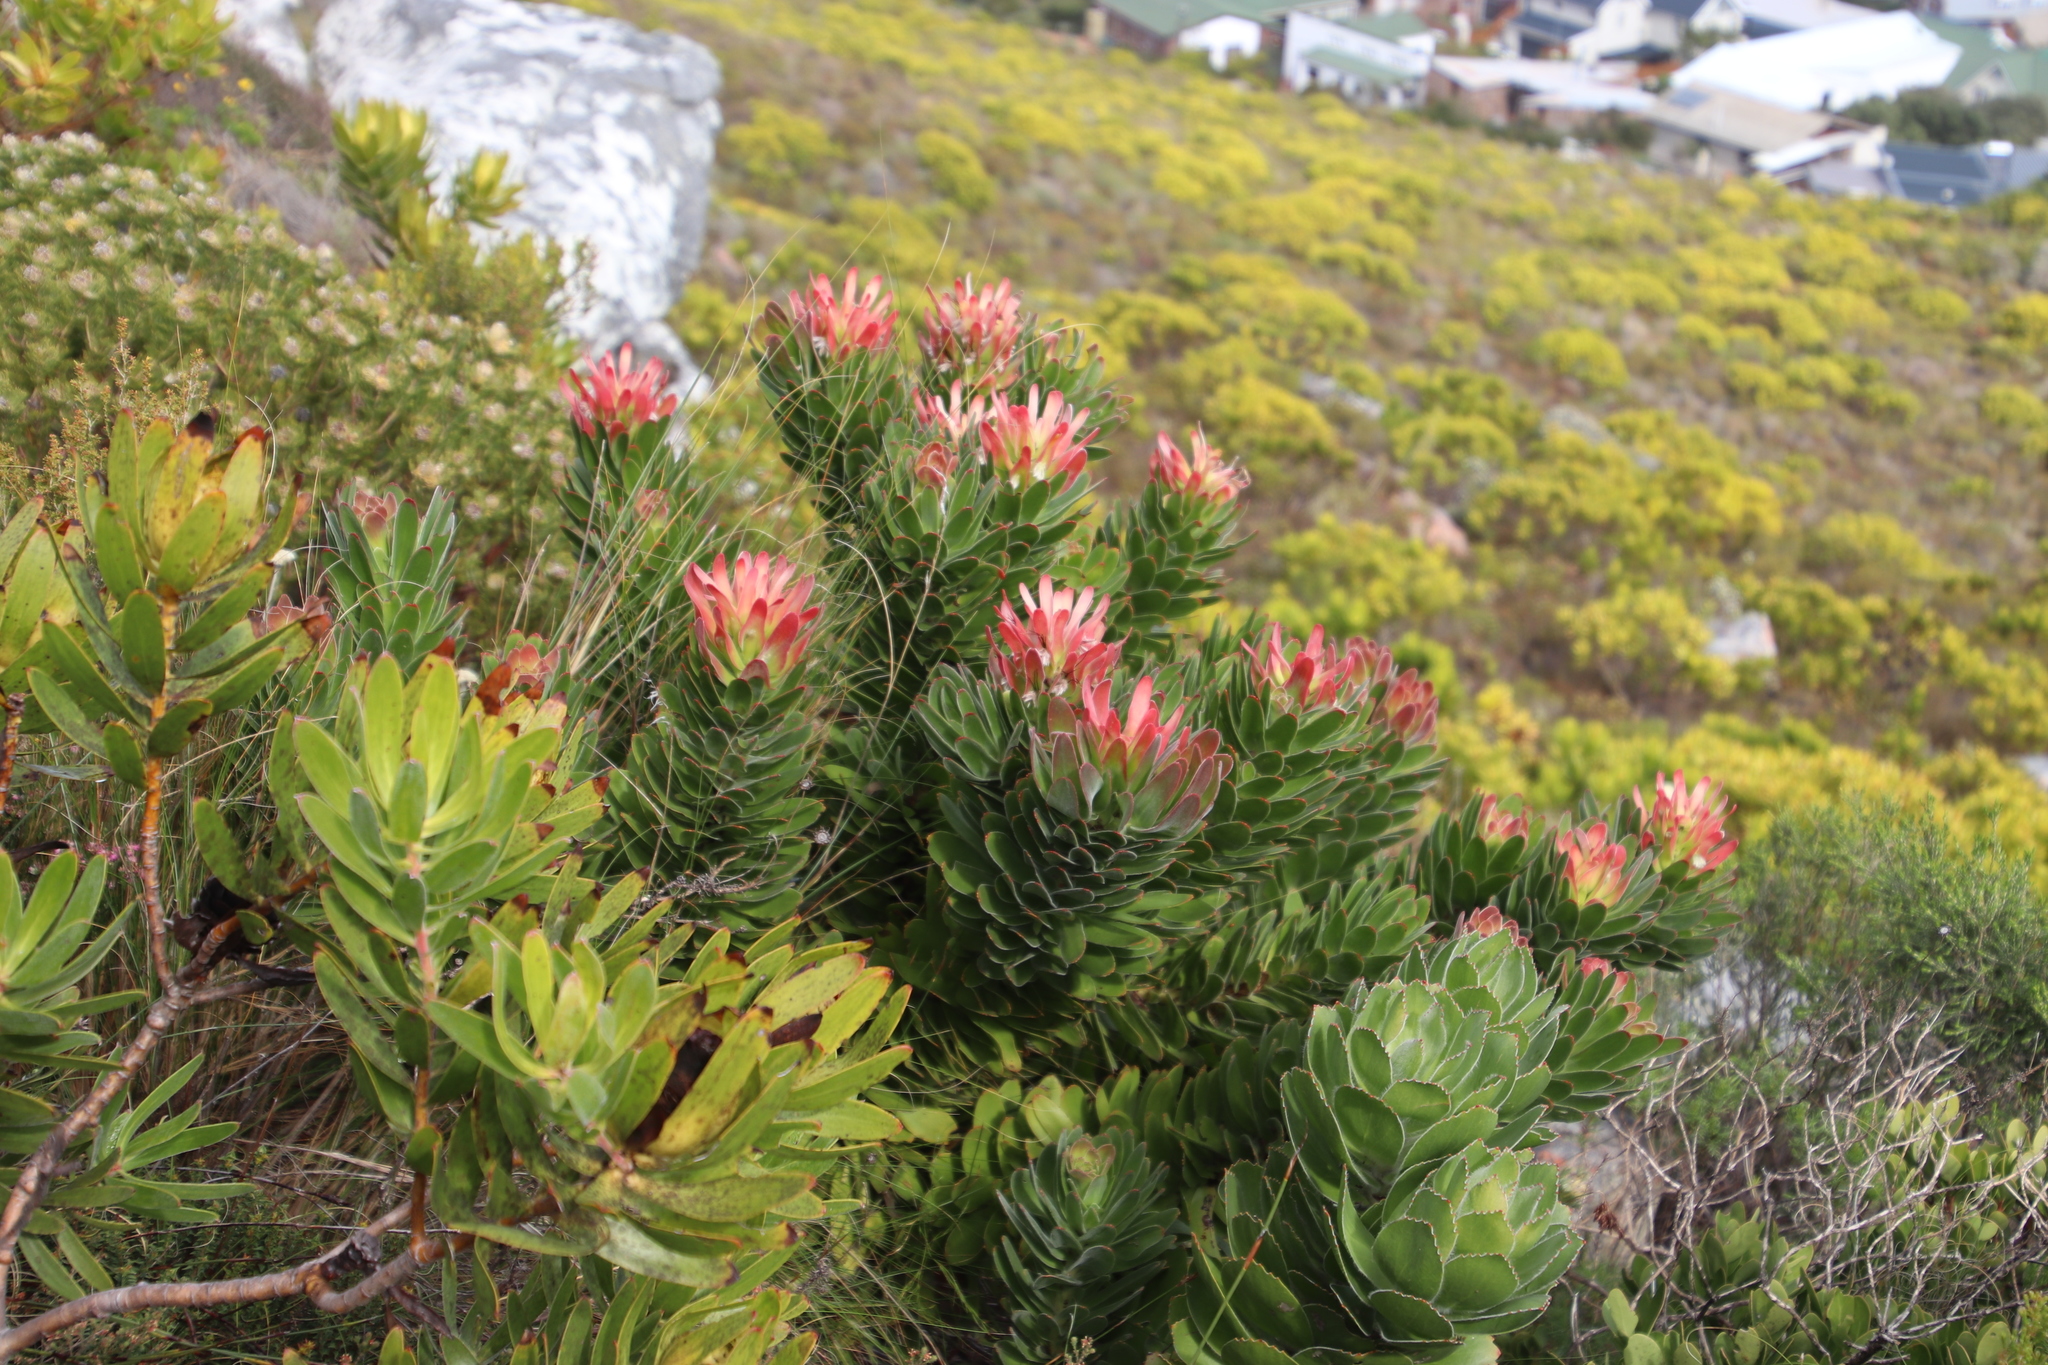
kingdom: Plantae
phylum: Tracheophyta
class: Magnoliopsida
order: Proteales
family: Proteaceae
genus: Mimetes
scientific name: Mimetes fimbriifolius
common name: Fringed bottlebrush
